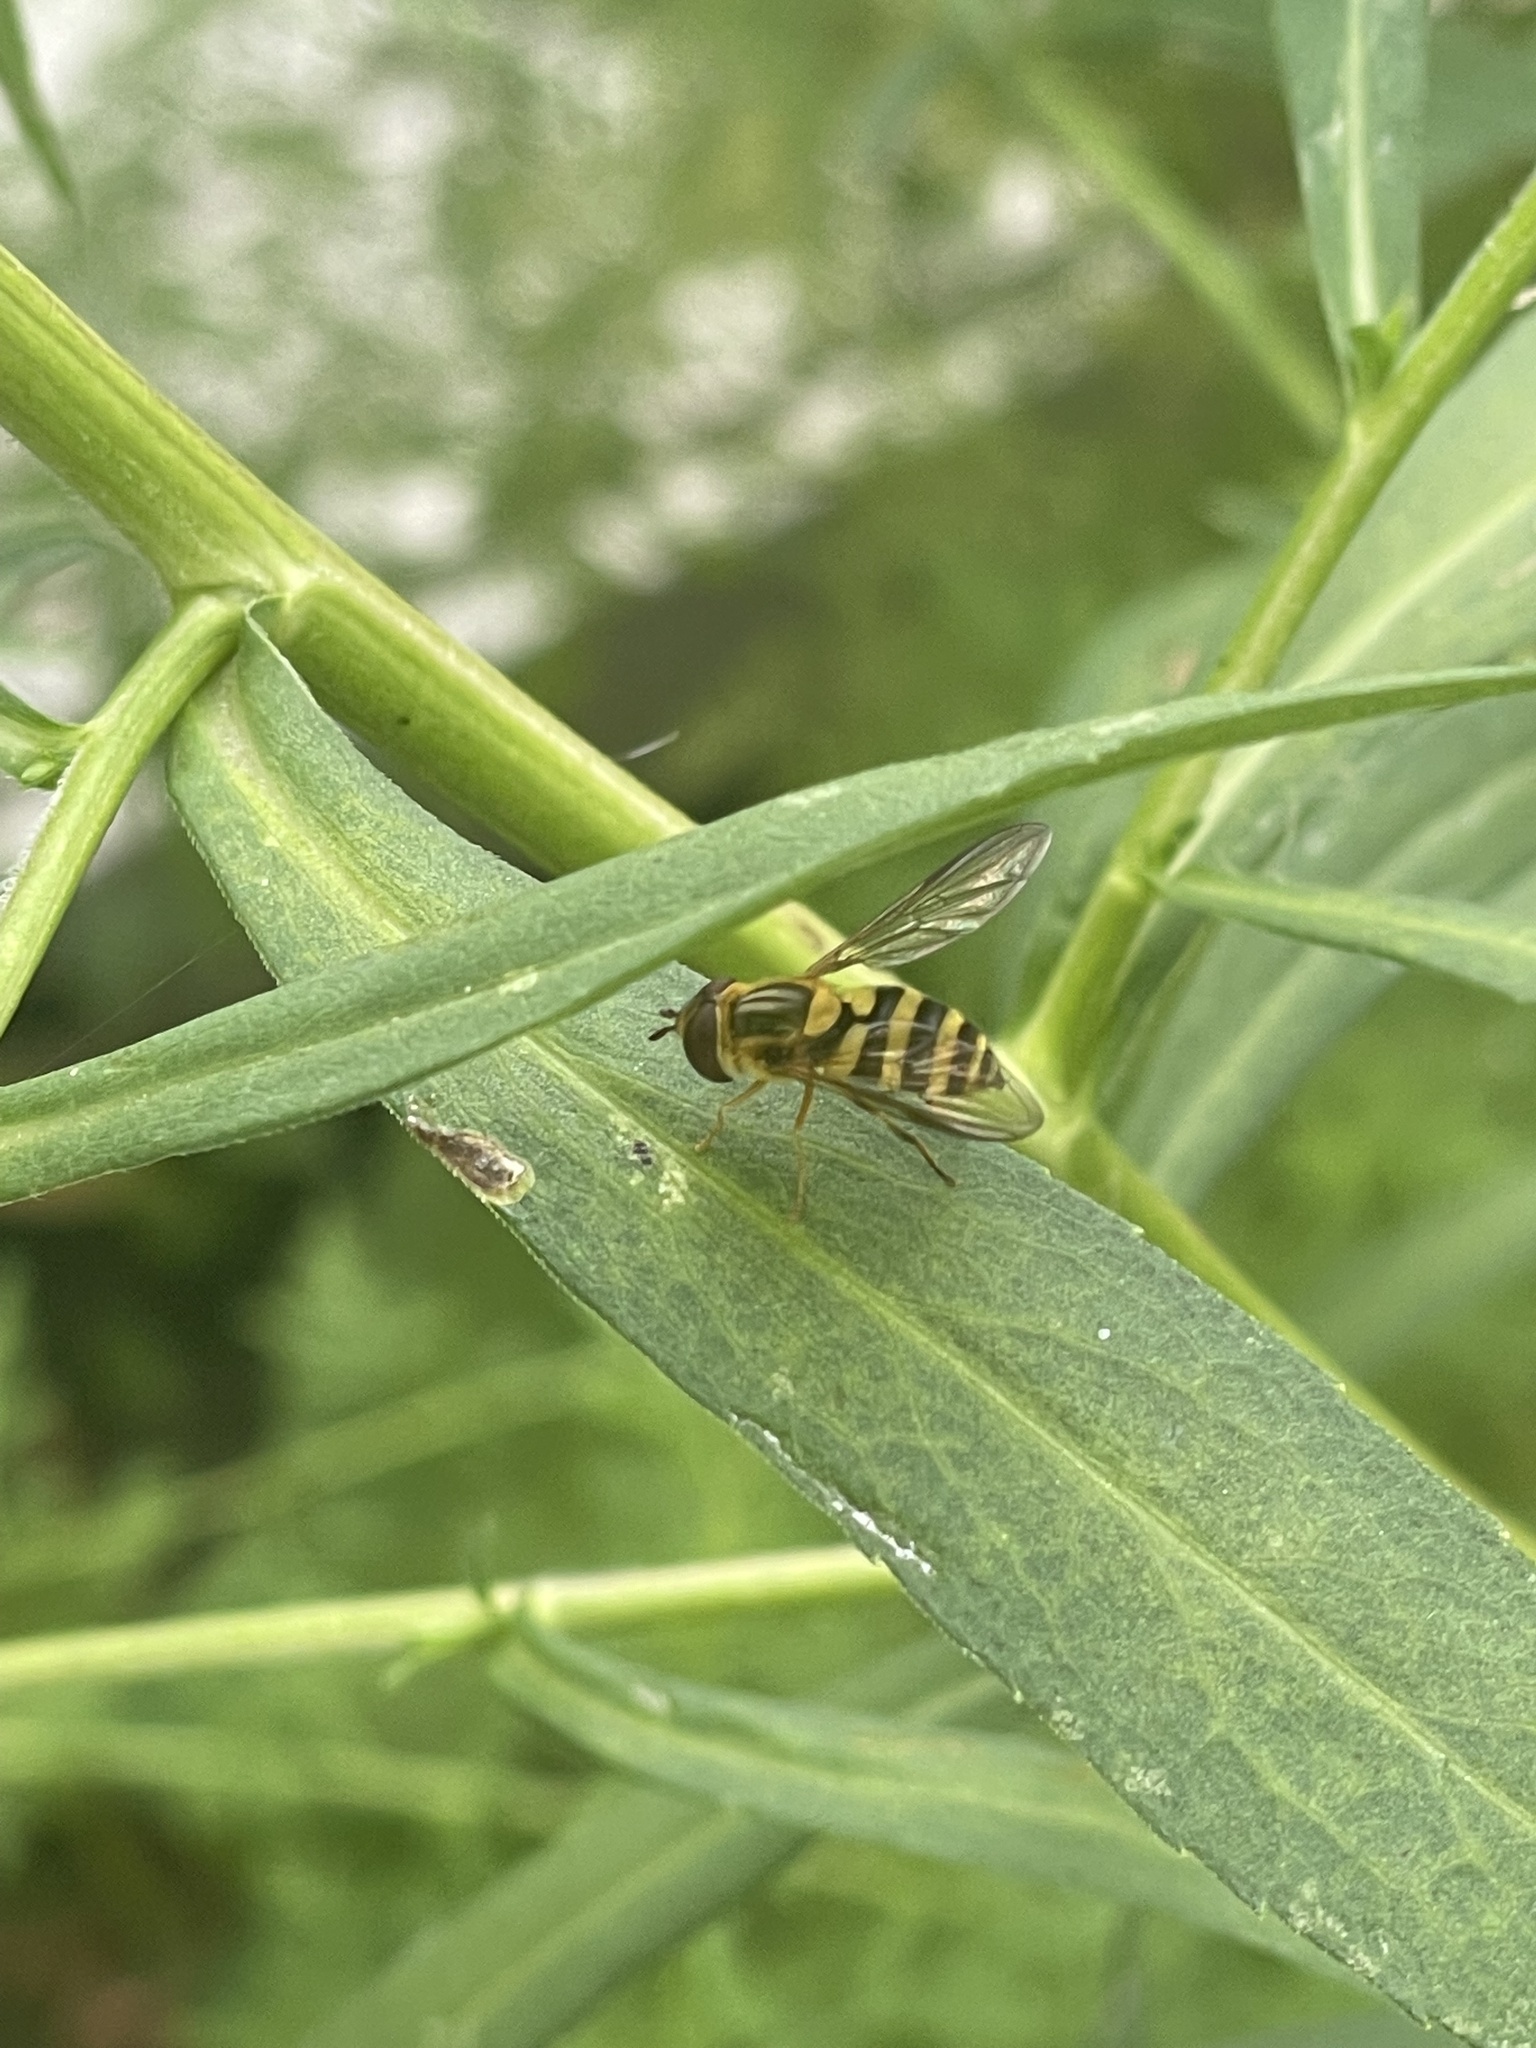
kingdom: Animalia
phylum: Arthropoda
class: Insecta
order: Diptera
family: Syrphidae
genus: Syrphus
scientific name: Syrphus knabi
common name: Eastern flower fly
